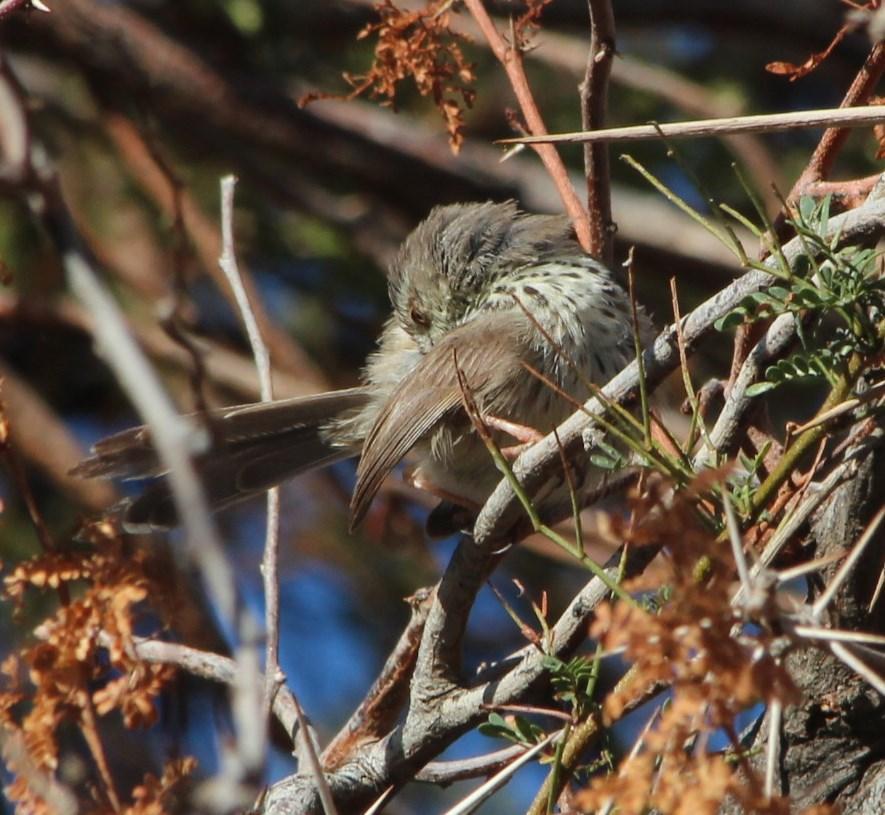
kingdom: Animalia
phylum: Chordata
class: Aves
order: Passeriformes
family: Cisticolidae
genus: Prinia
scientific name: Prinia maculosa
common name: Karoo prinia
